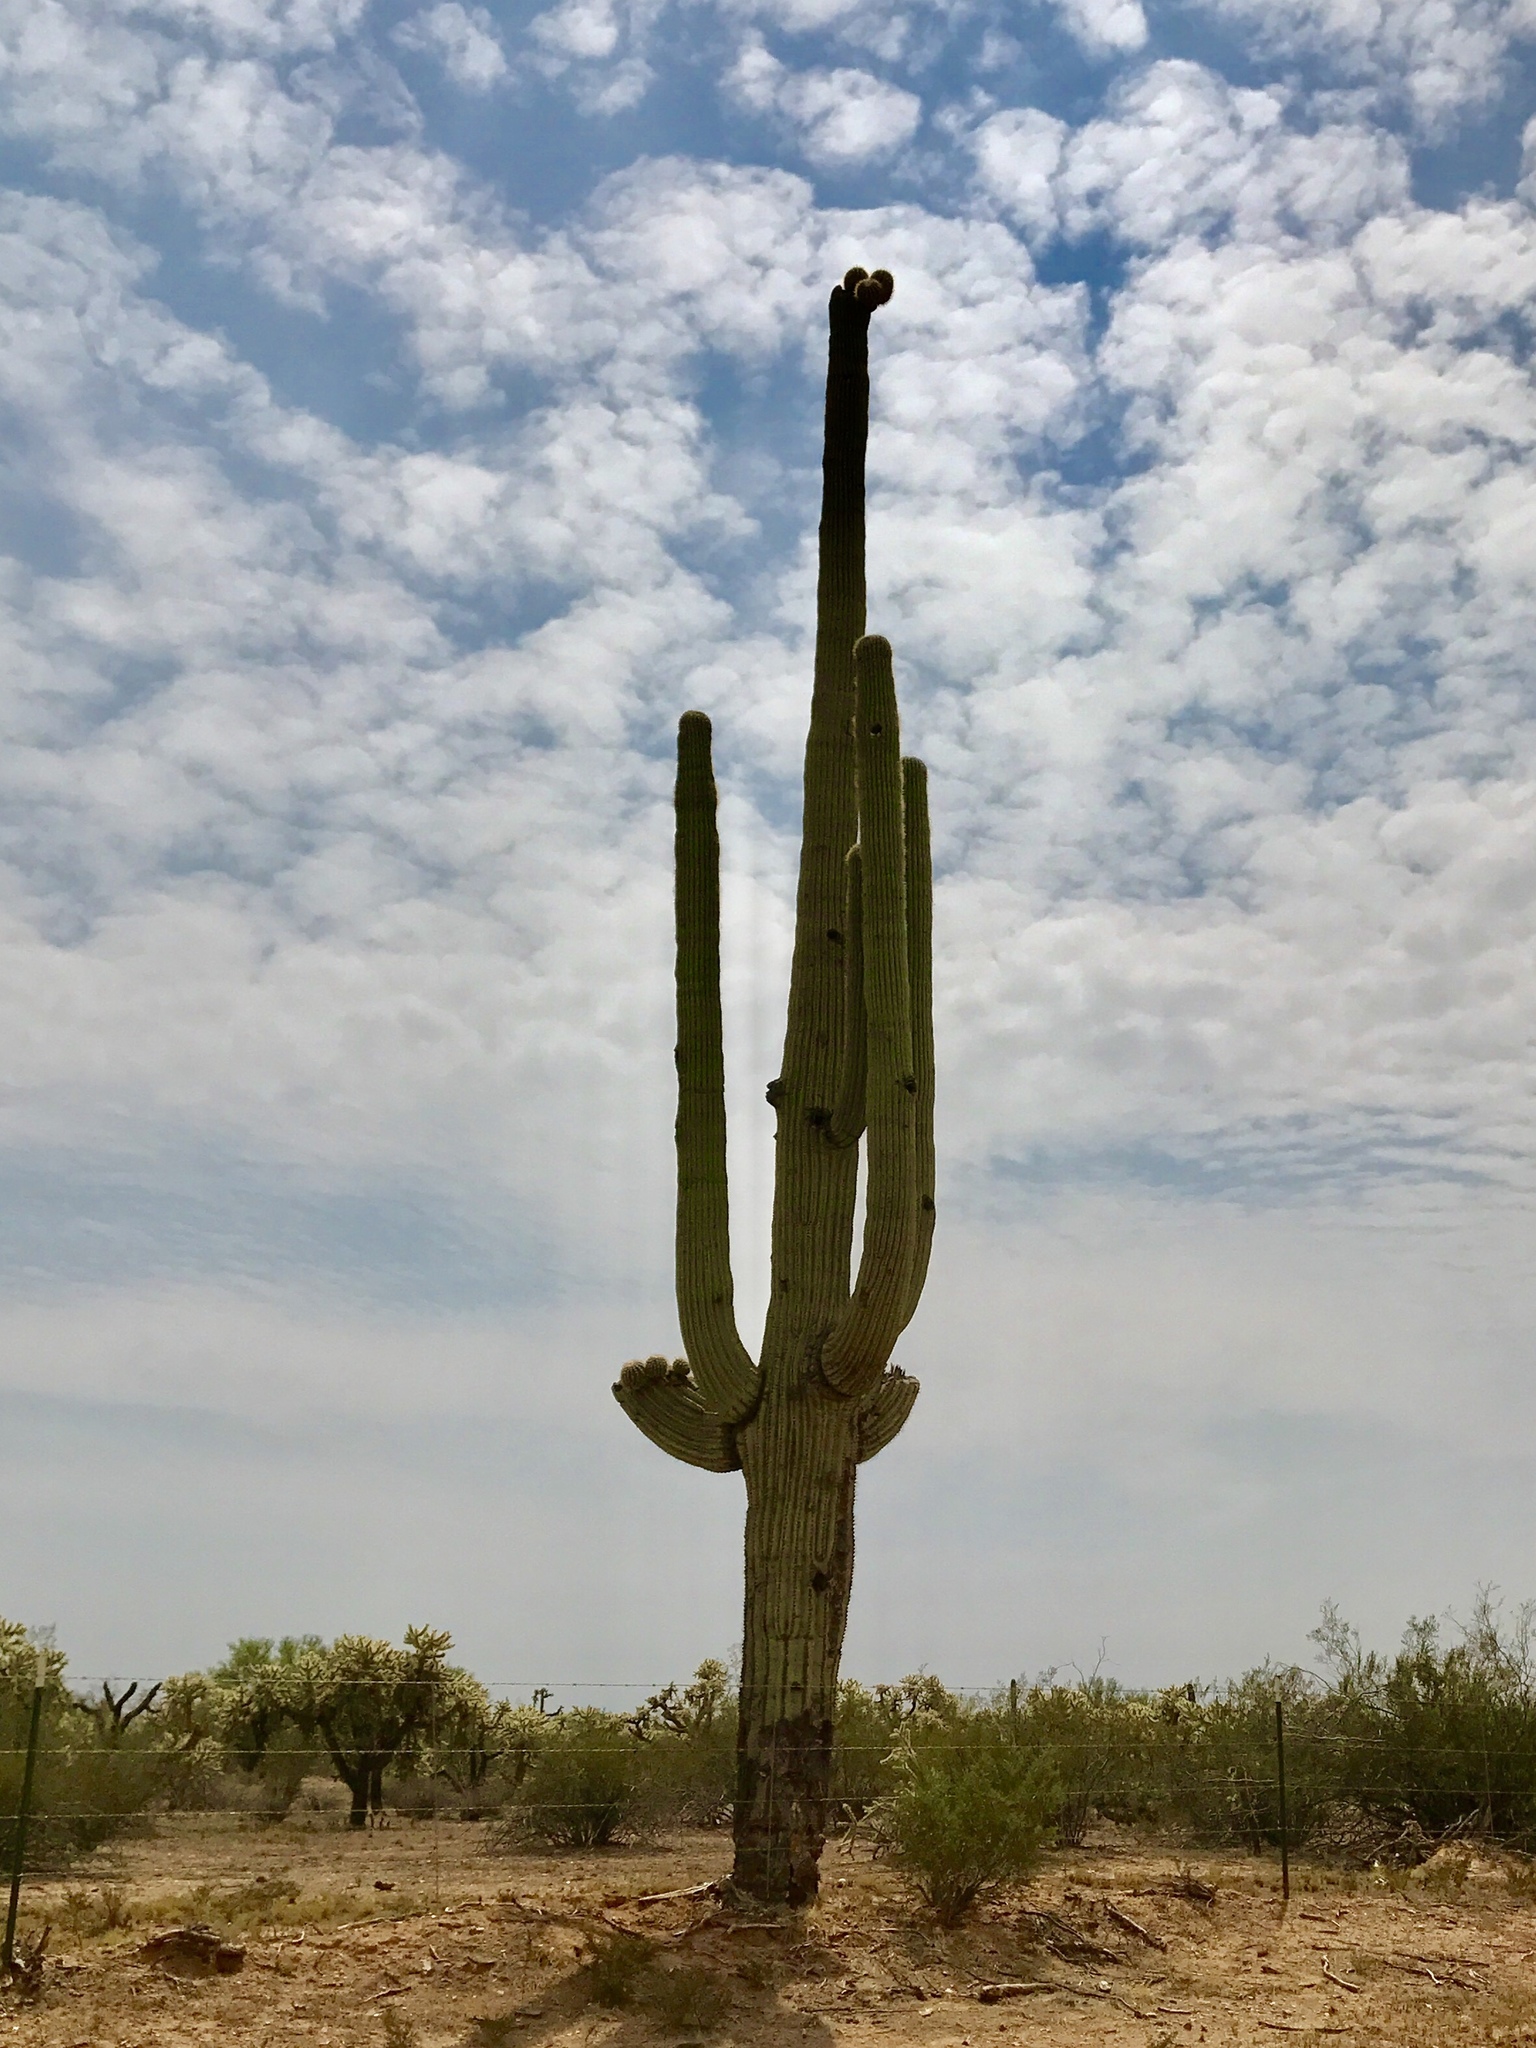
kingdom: Plantae
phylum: Tracheophyta
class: Magnoliopsida
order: Caryophyllales
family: Cactaceae
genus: Carnegiea
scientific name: Carnegiea gigantea
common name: Saguaro
